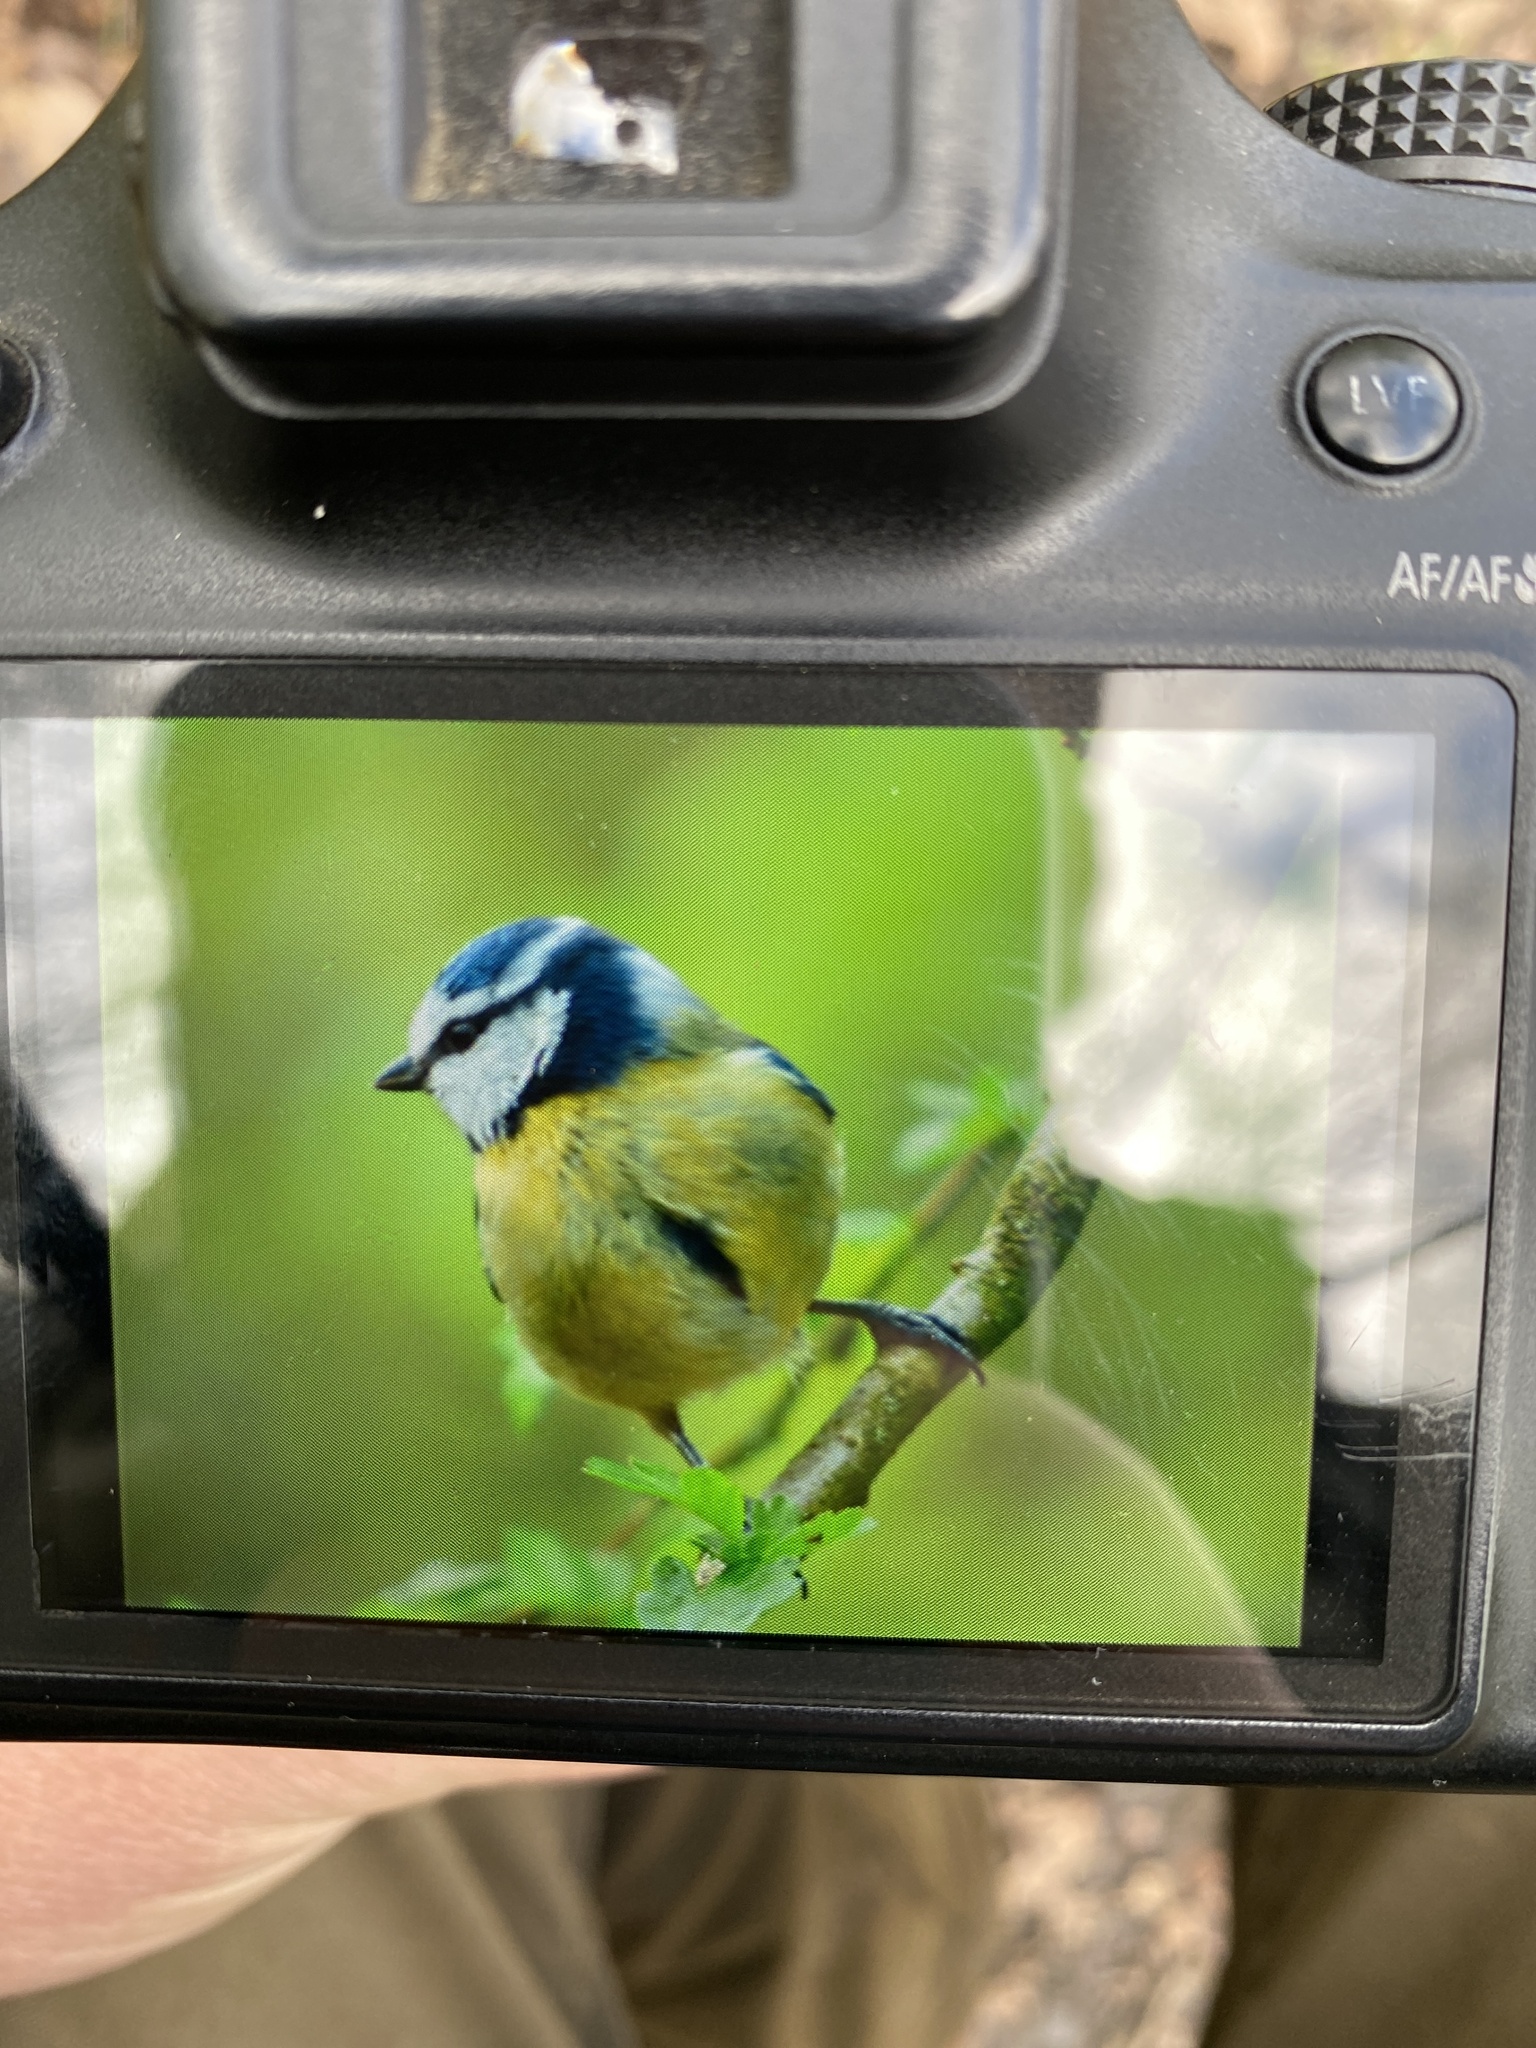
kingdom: Animalia
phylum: Chordata
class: Aves
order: Passeriformes
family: Paridae
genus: Cyanistes
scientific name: Cyanistes caeruleus
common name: Eurasian blue tit
